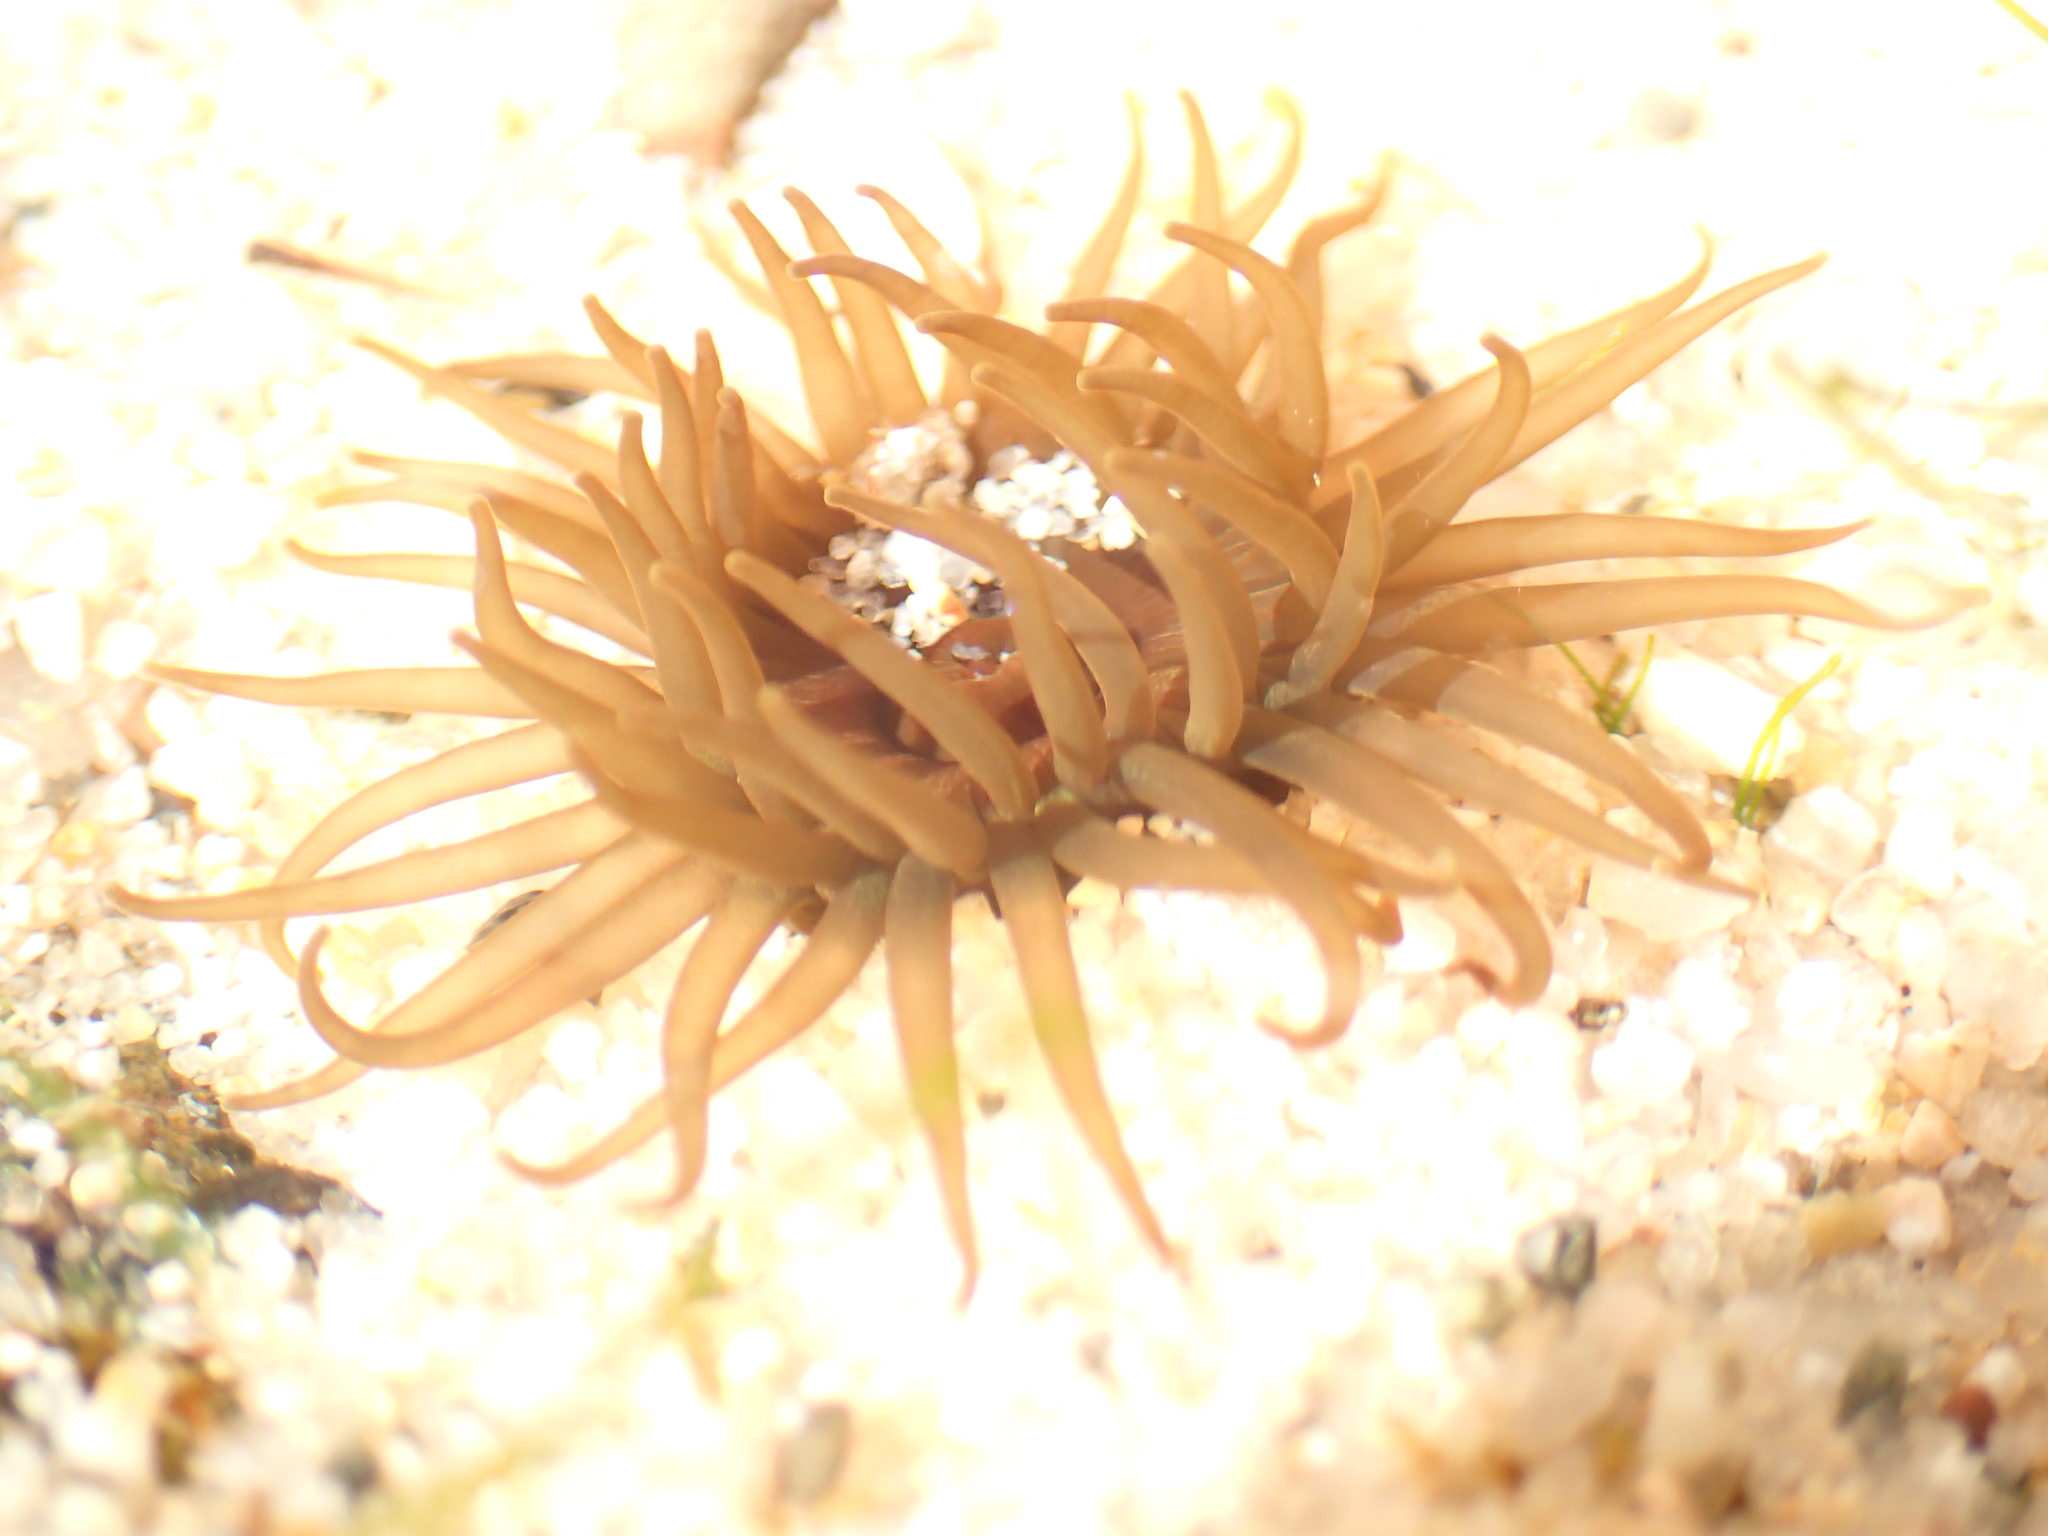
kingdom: Animalia
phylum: Cnidaria
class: Anthozoa
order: Actiniaria
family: Actiniidae
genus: Isactinia
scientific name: Isactinia olivacea
